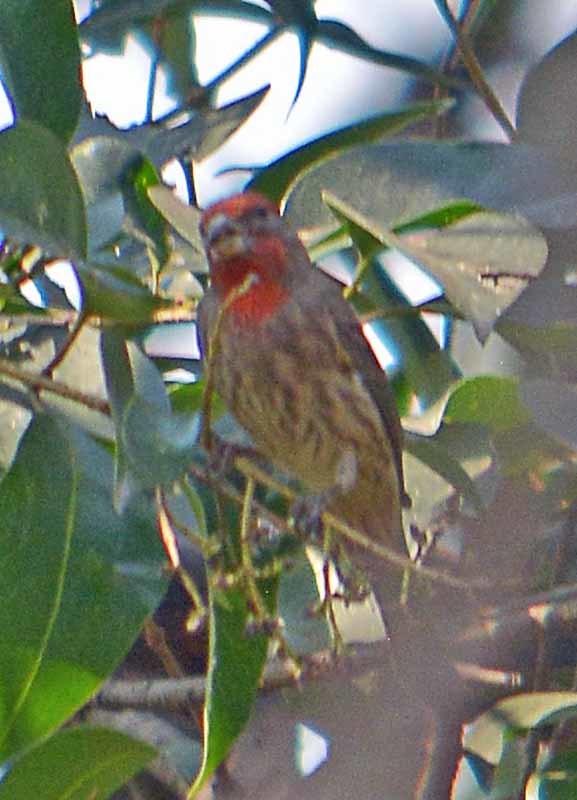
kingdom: Animalia
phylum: Chordata
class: Aves
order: Passeriformes
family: Fringillidae
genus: Haemorhous
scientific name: Haemorhous mexicanus
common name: House finch
